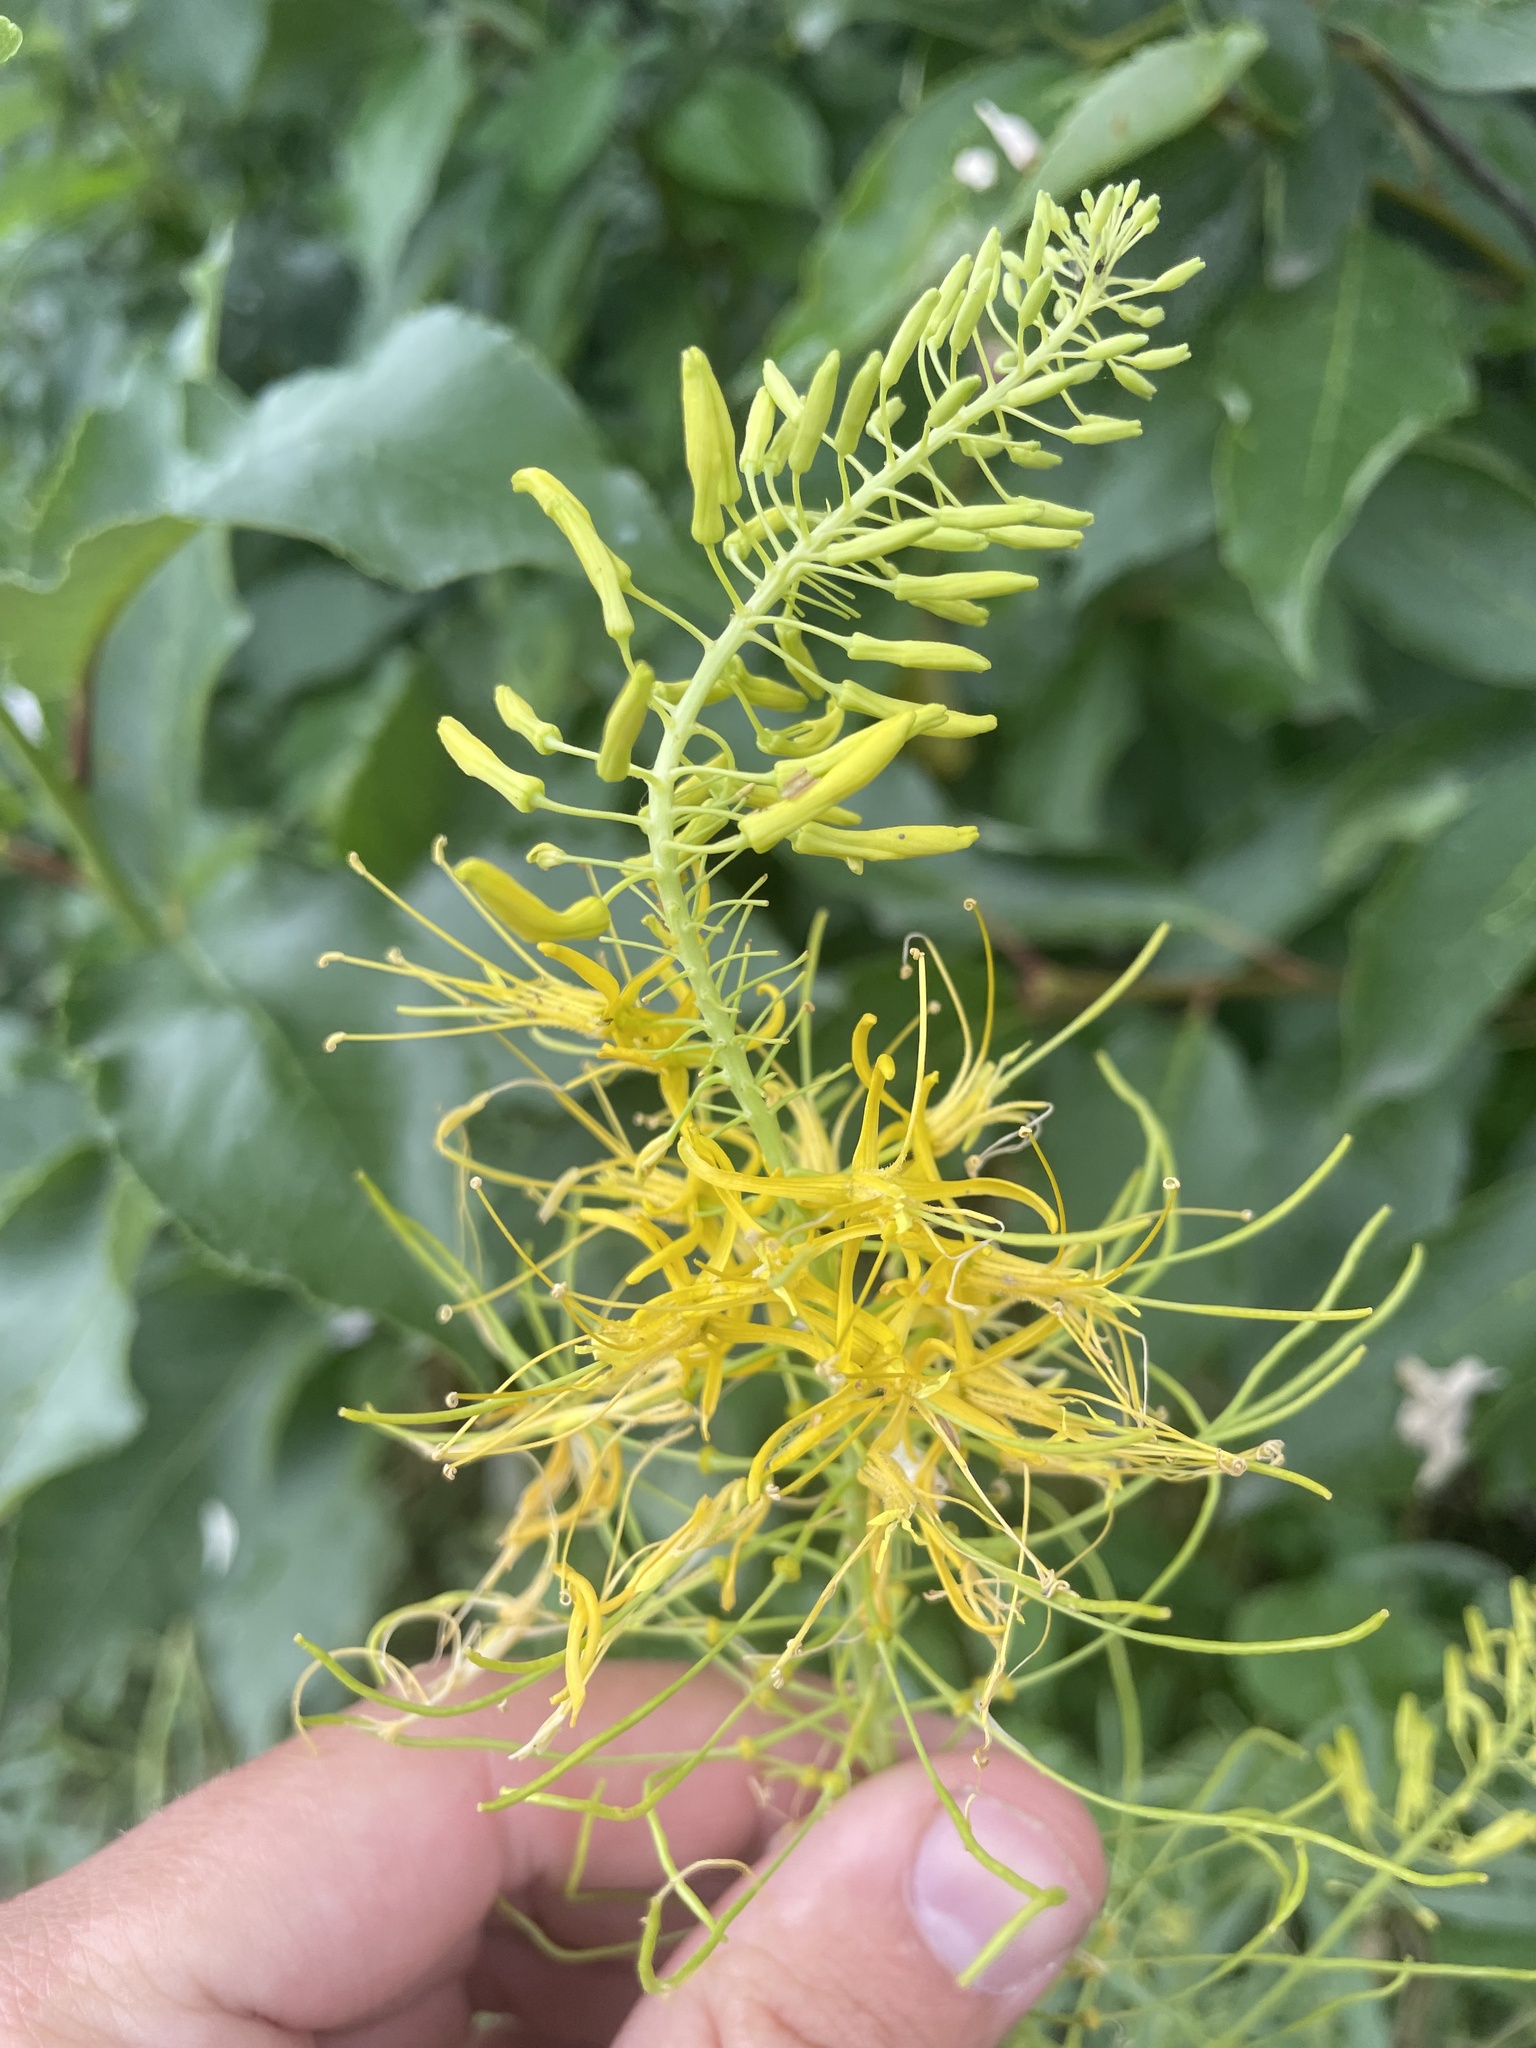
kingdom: Plantae
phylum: Tracheophyta
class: Magnoliopsida
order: Brassicales
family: Brassicaceae
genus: Stanleya
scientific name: Stanleya pinnata
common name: Prince's-plume
